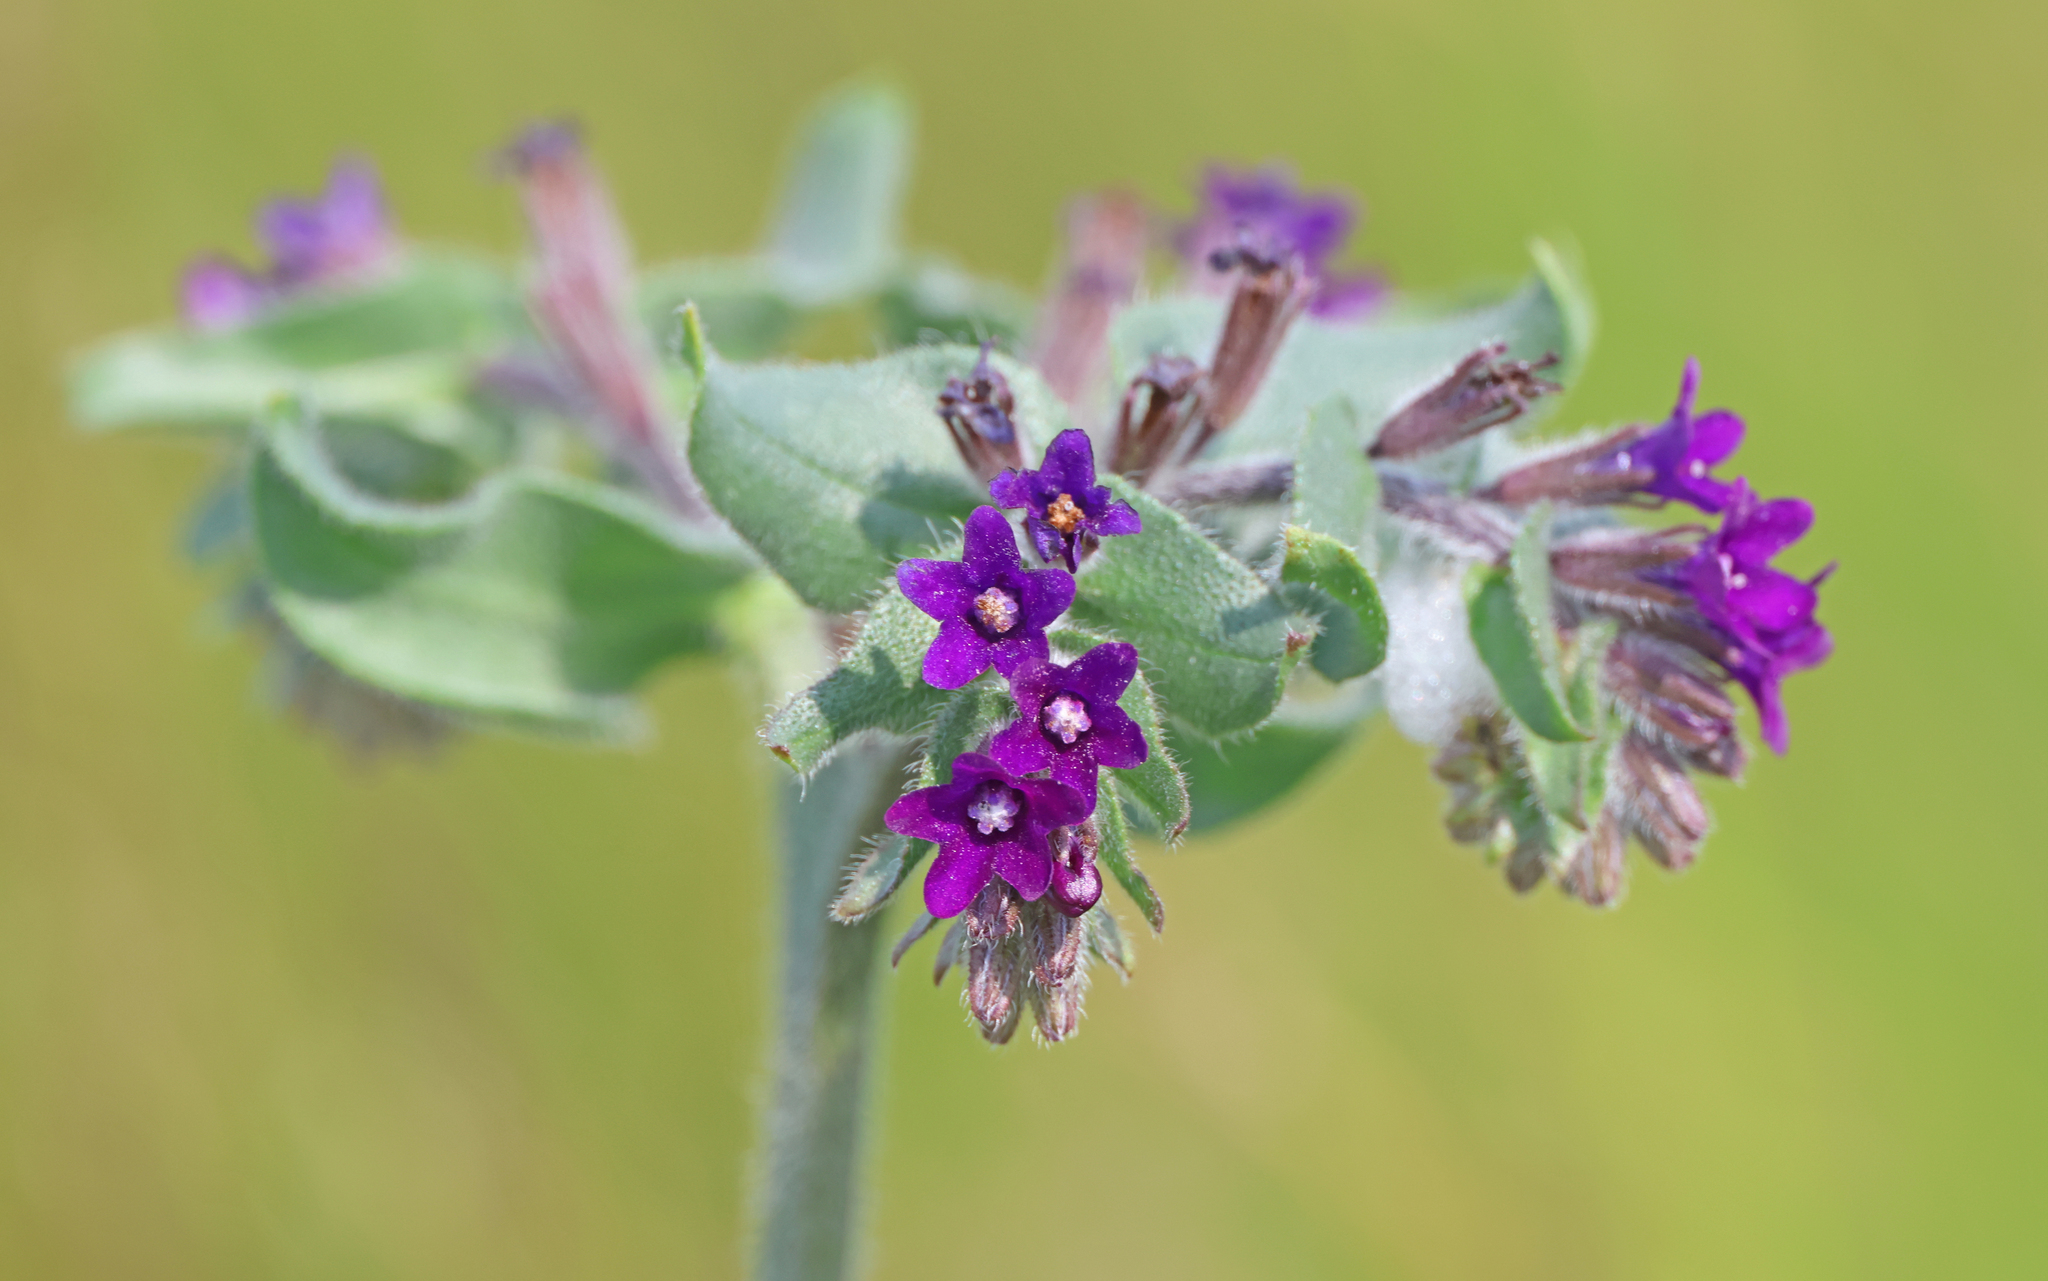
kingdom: Plantae
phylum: Tracheophyta
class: Magnoliopsida
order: Boraginales
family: Boraginaceae
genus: Anchusa
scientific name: Anchusa officinalis
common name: Alkanet
